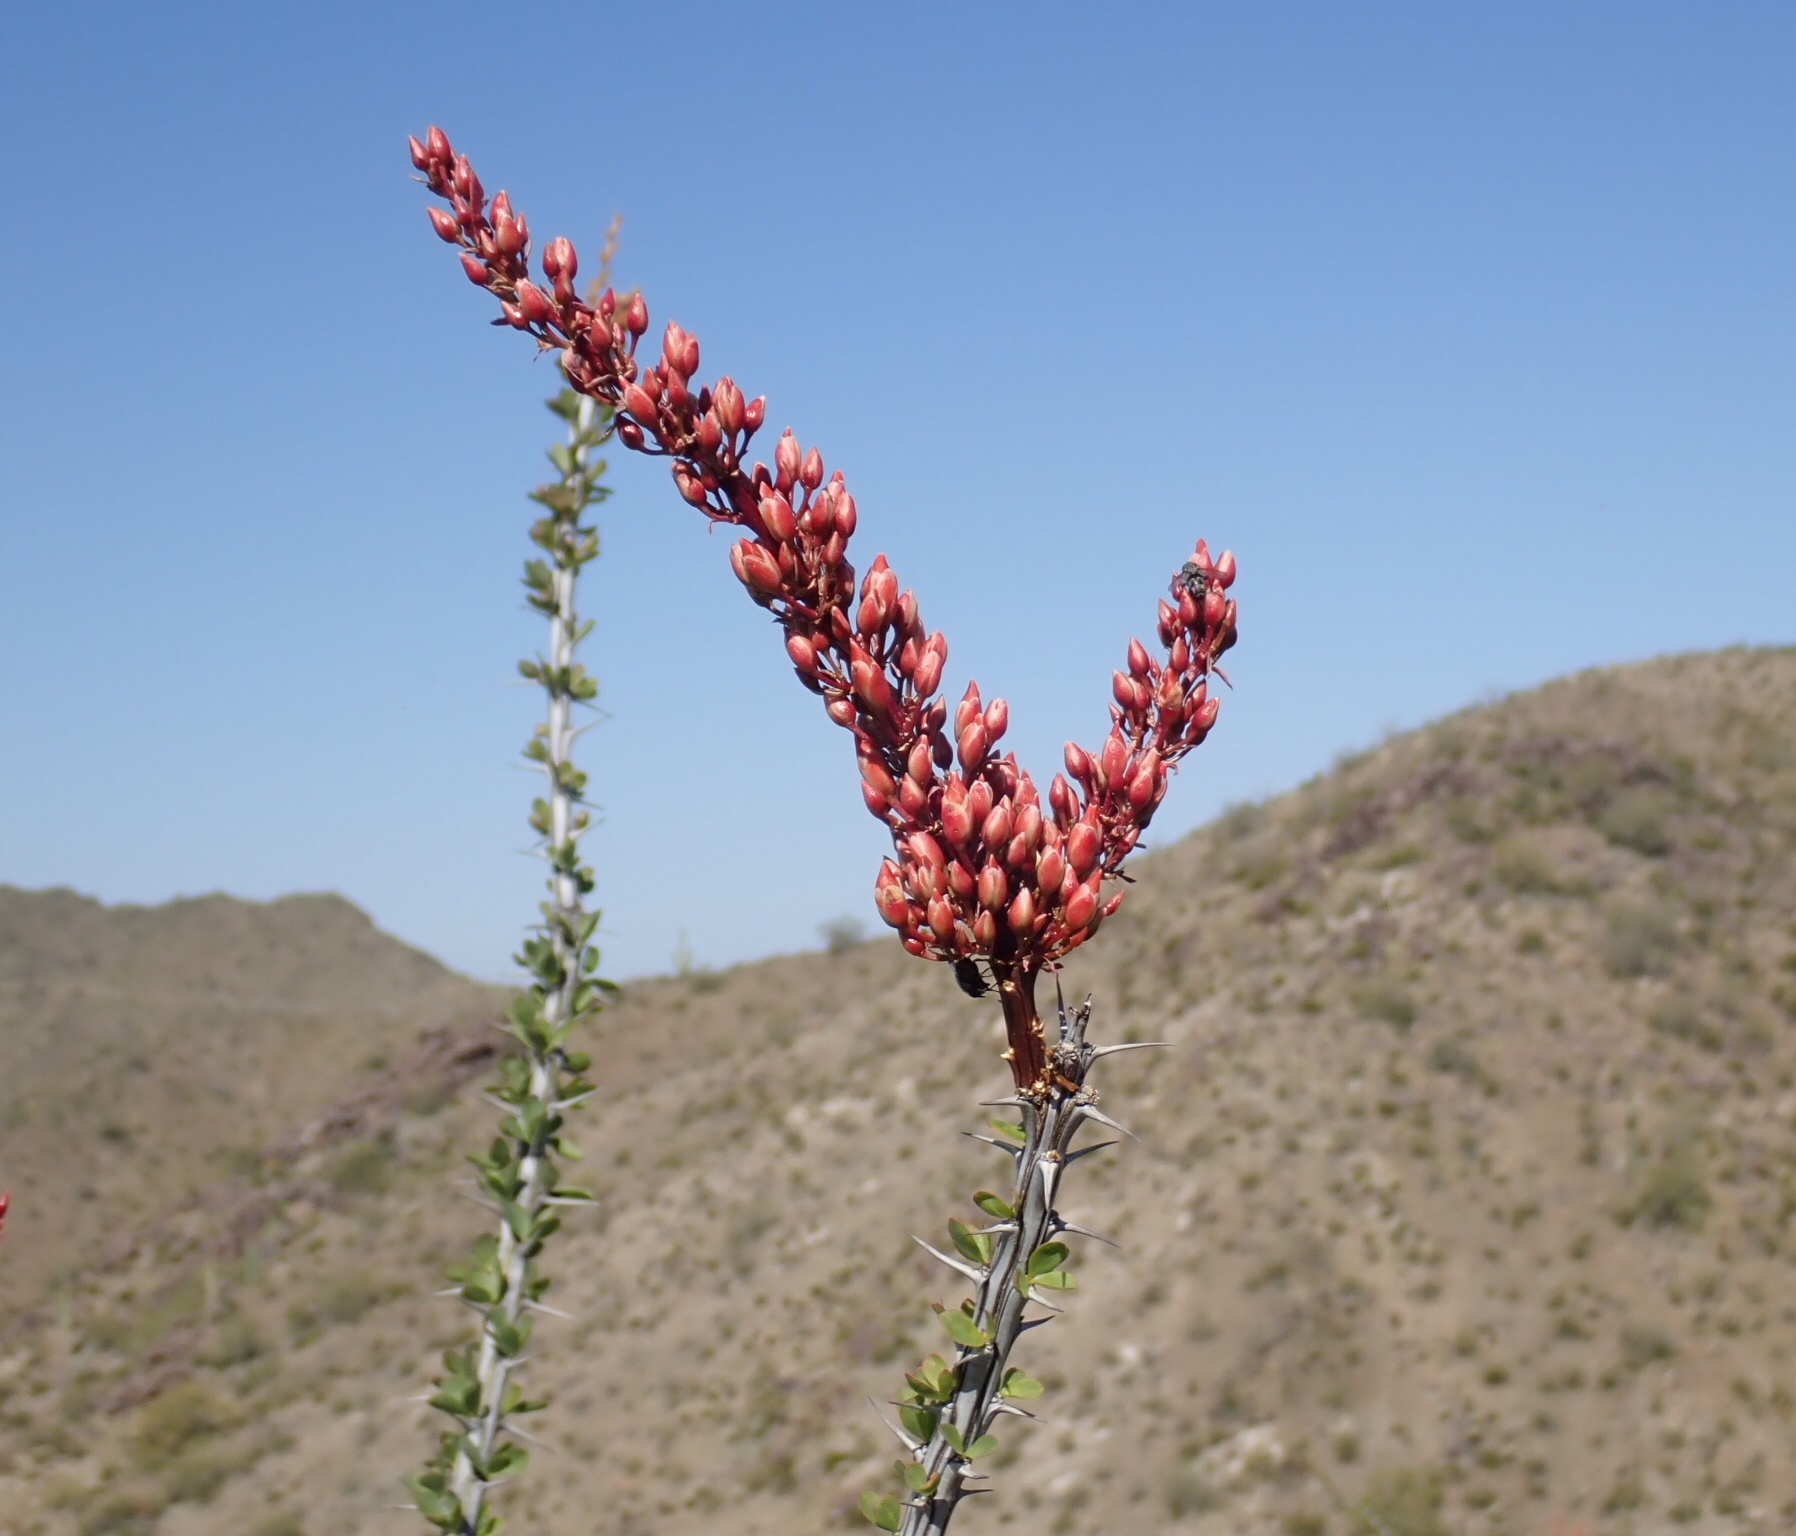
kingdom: Plantae
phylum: Tracheophyta
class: Magnoliopsida
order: Ericales
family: Fouquieriaceae
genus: Fouquieria
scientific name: Fouquieria splendens
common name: Vine-cactus
